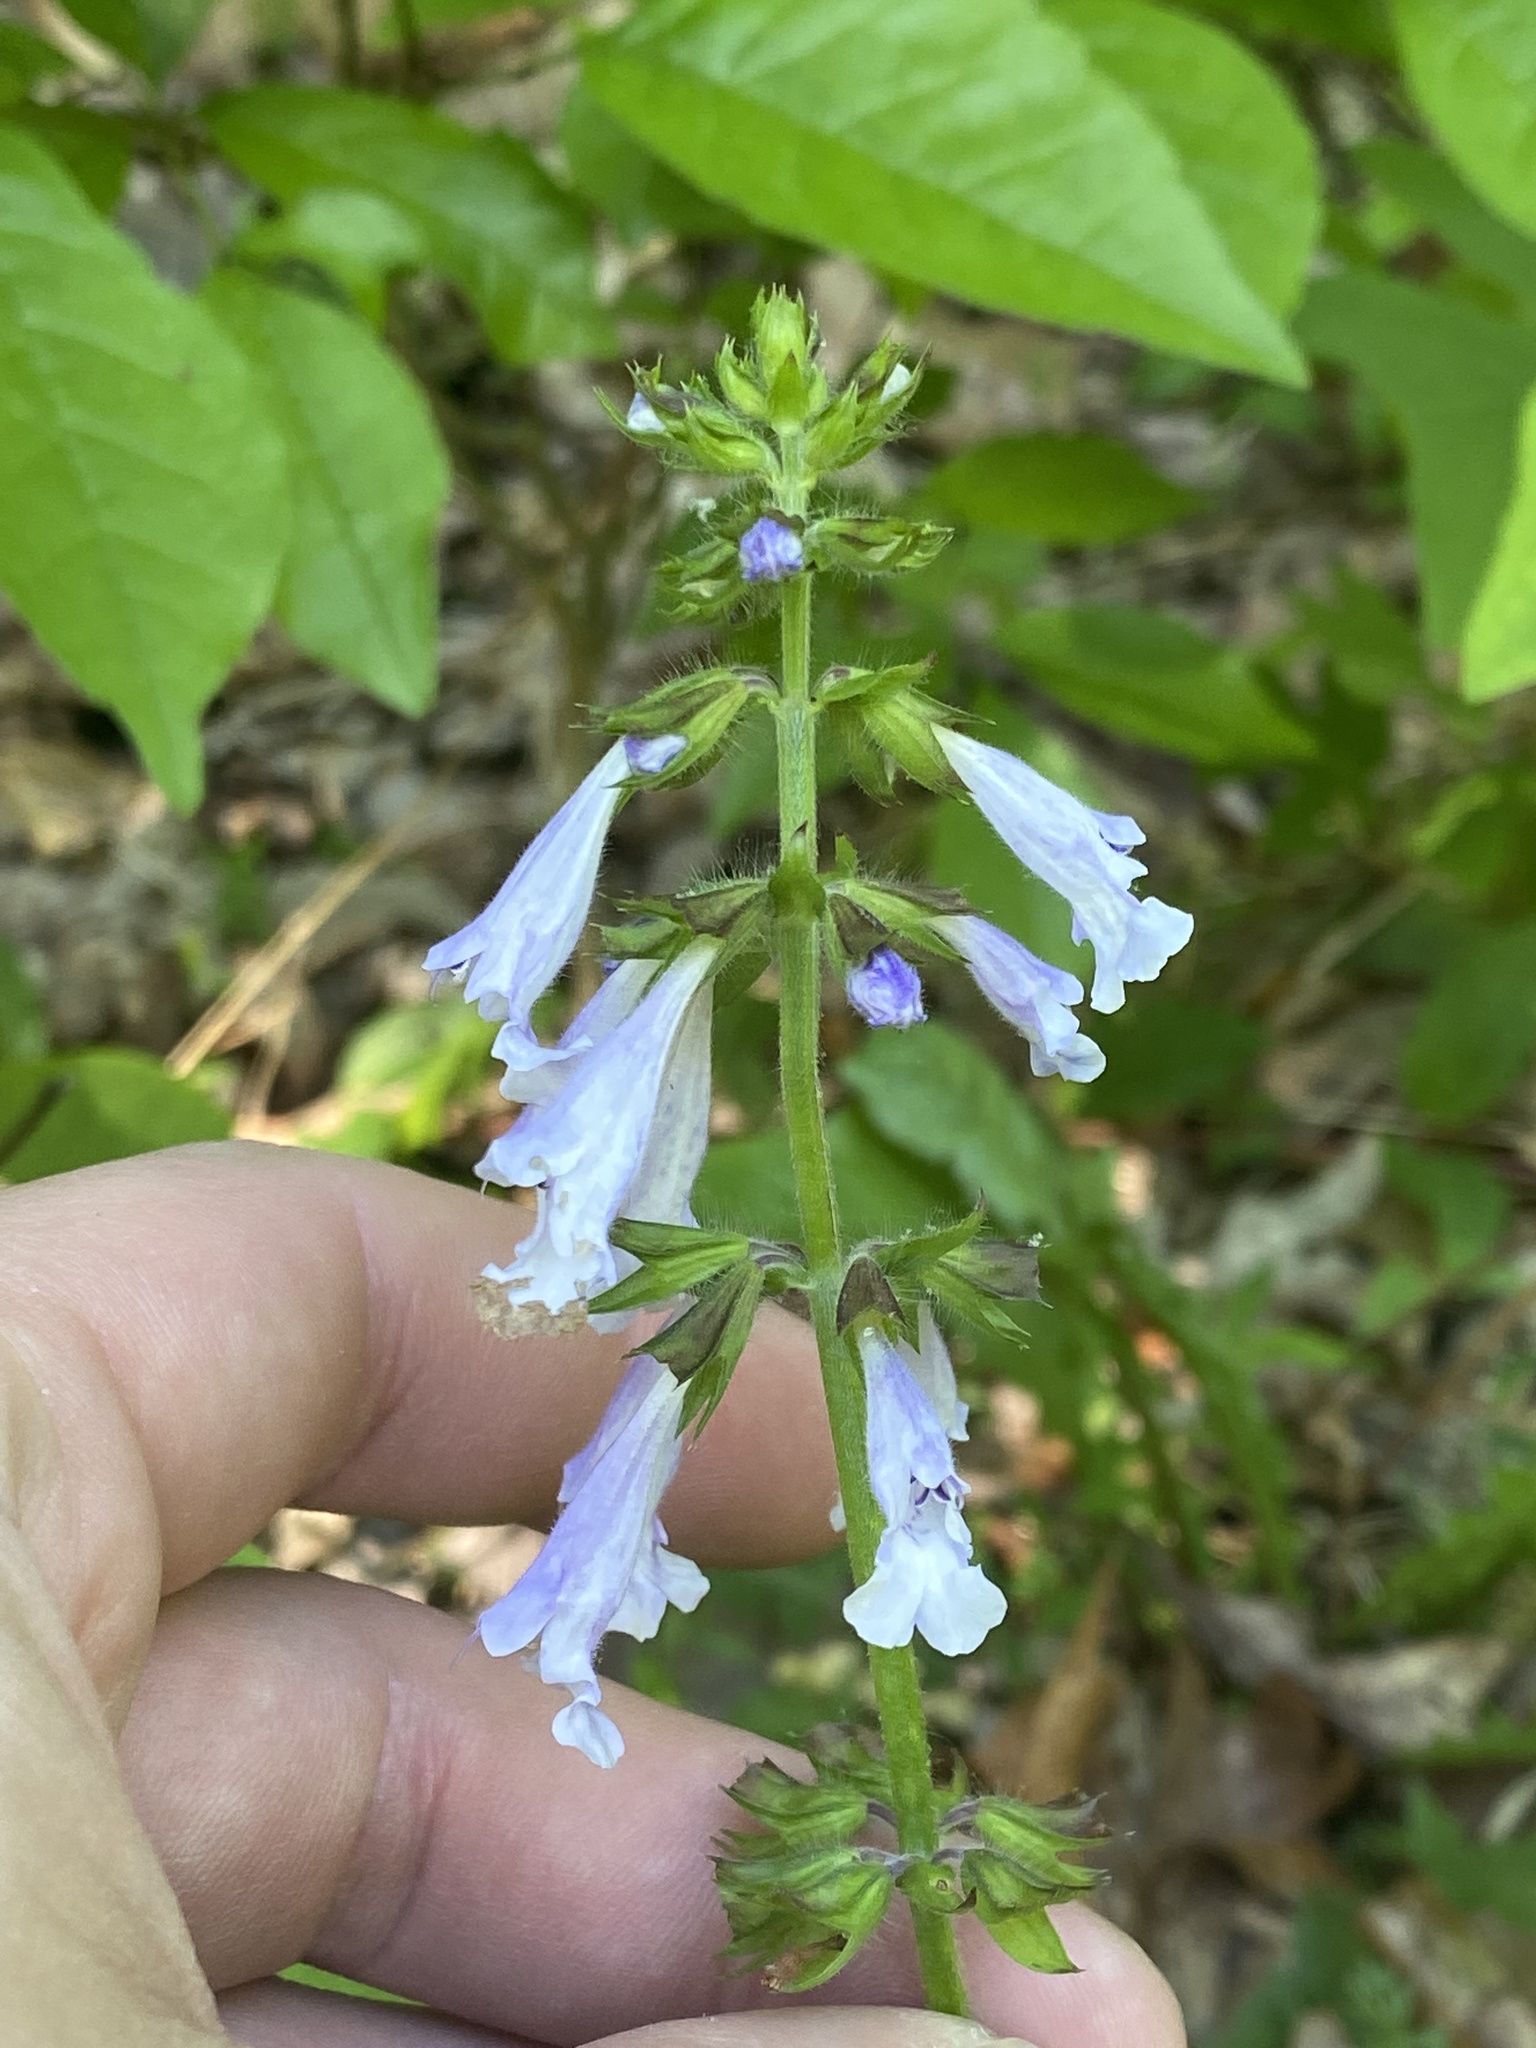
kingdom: Plantae
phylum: Tracheophyta
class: Magnoliopsida
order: Lamiales
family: Lamiaceae
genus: Salvia
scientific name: Salvia lyrata
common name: Cancerweed
